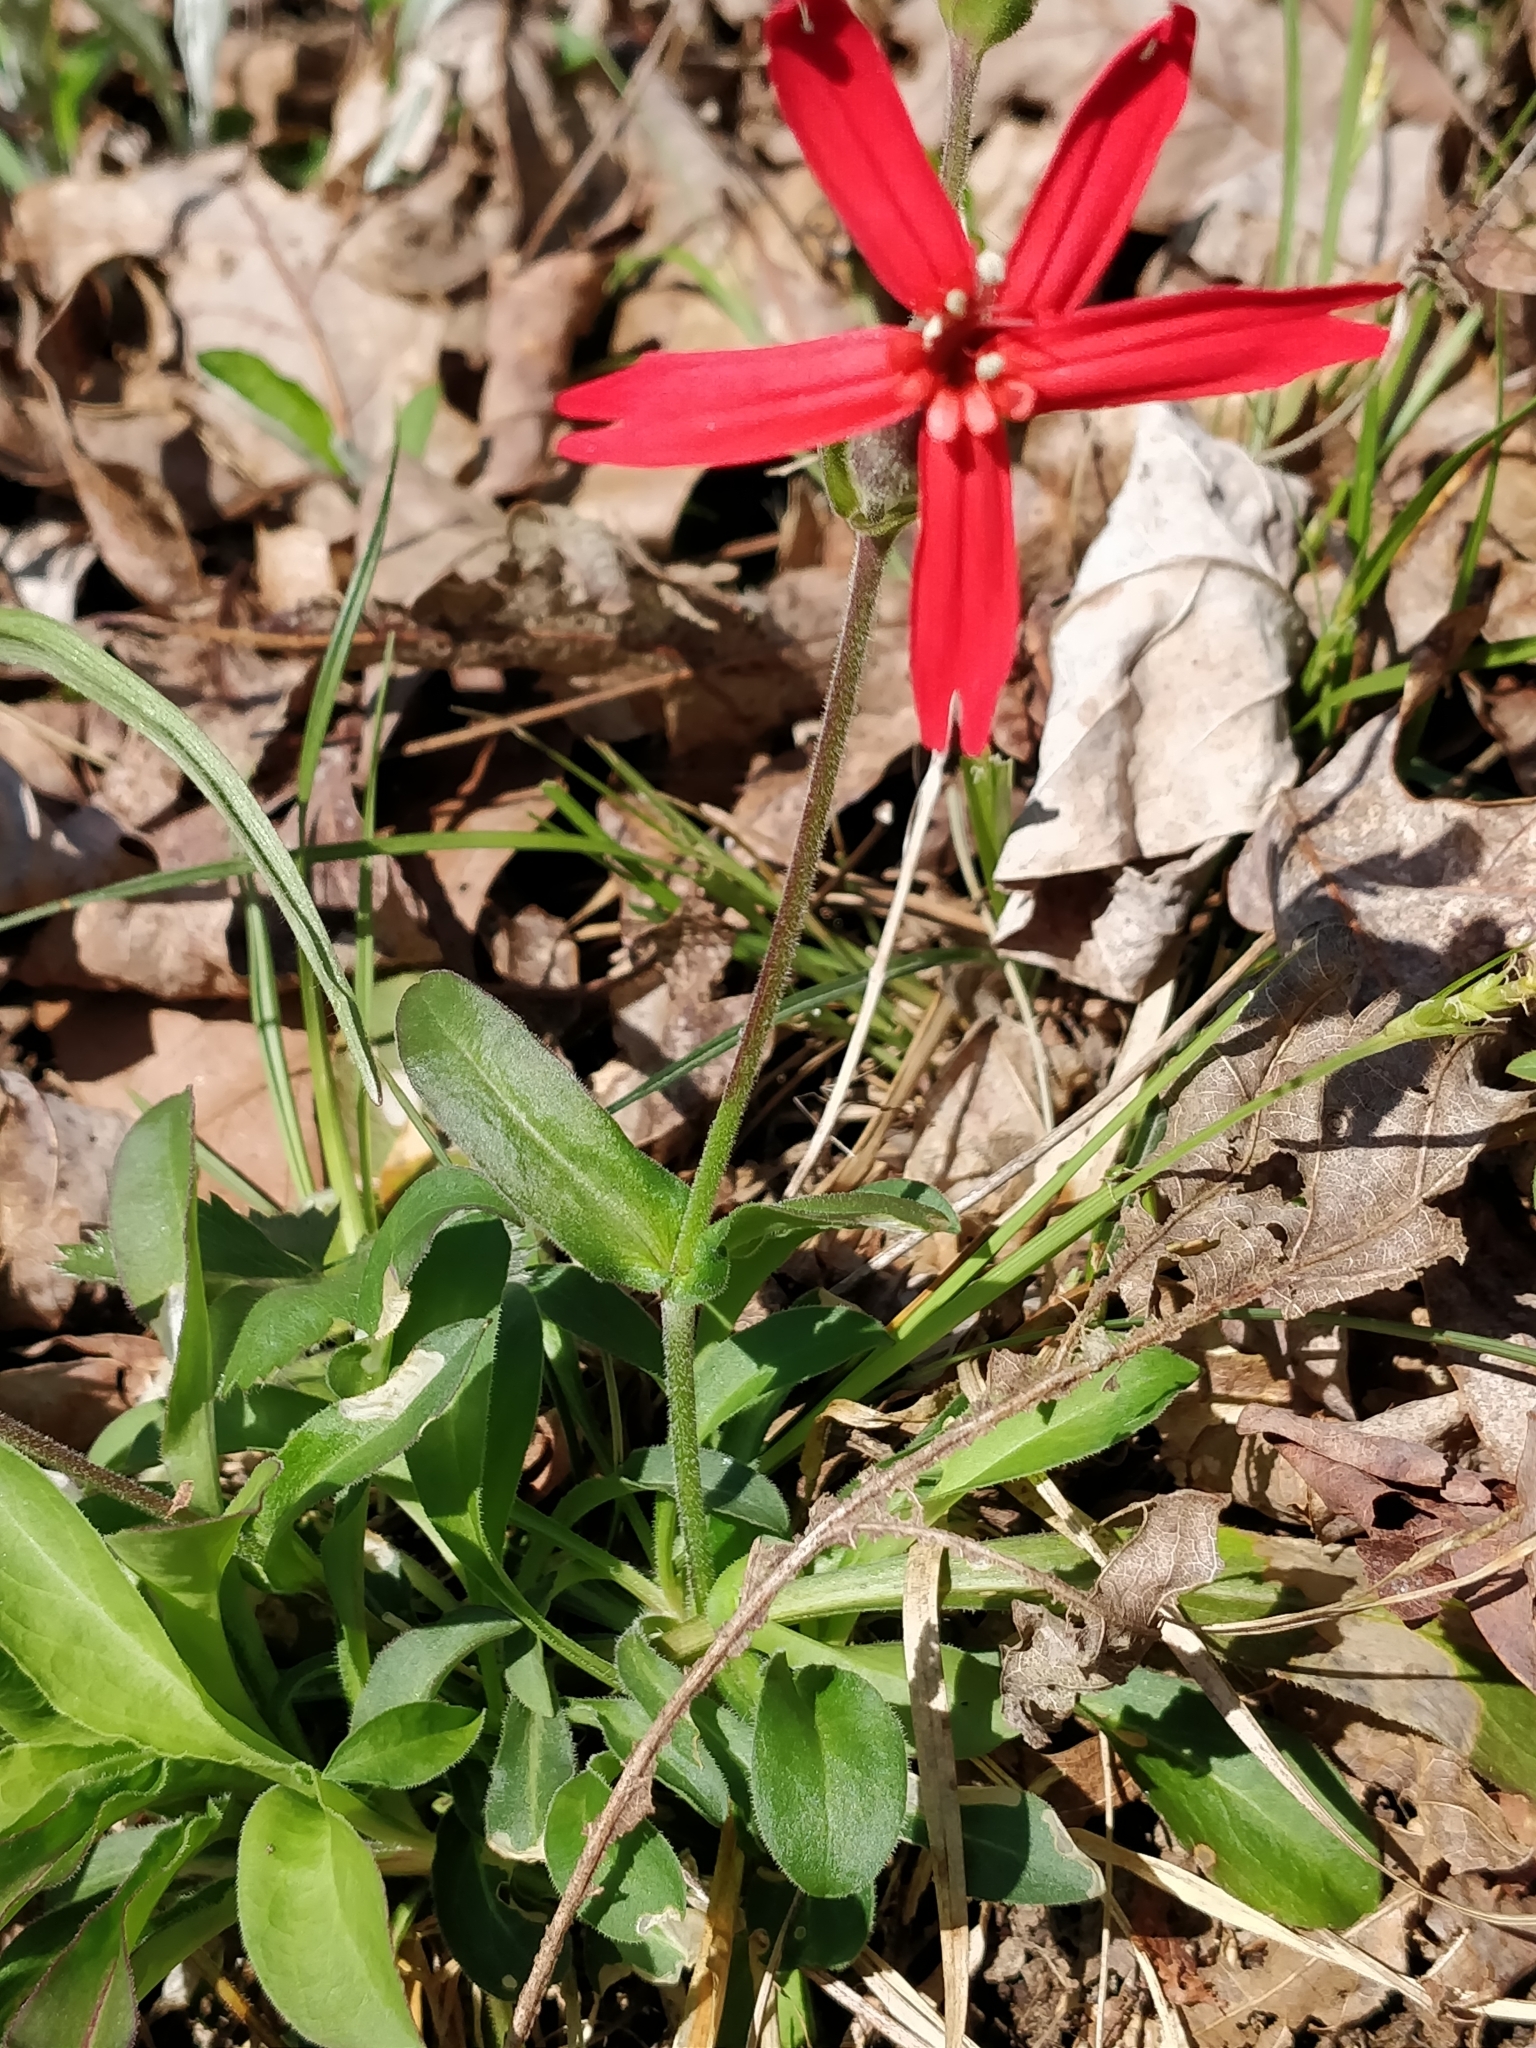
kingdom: Plantae
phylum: Tracheophyta
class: Magnoliopsida
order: Caryophyllales
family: Caryophyllaceae
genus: Silene
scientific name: Silene virginica
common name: Fire-pink
